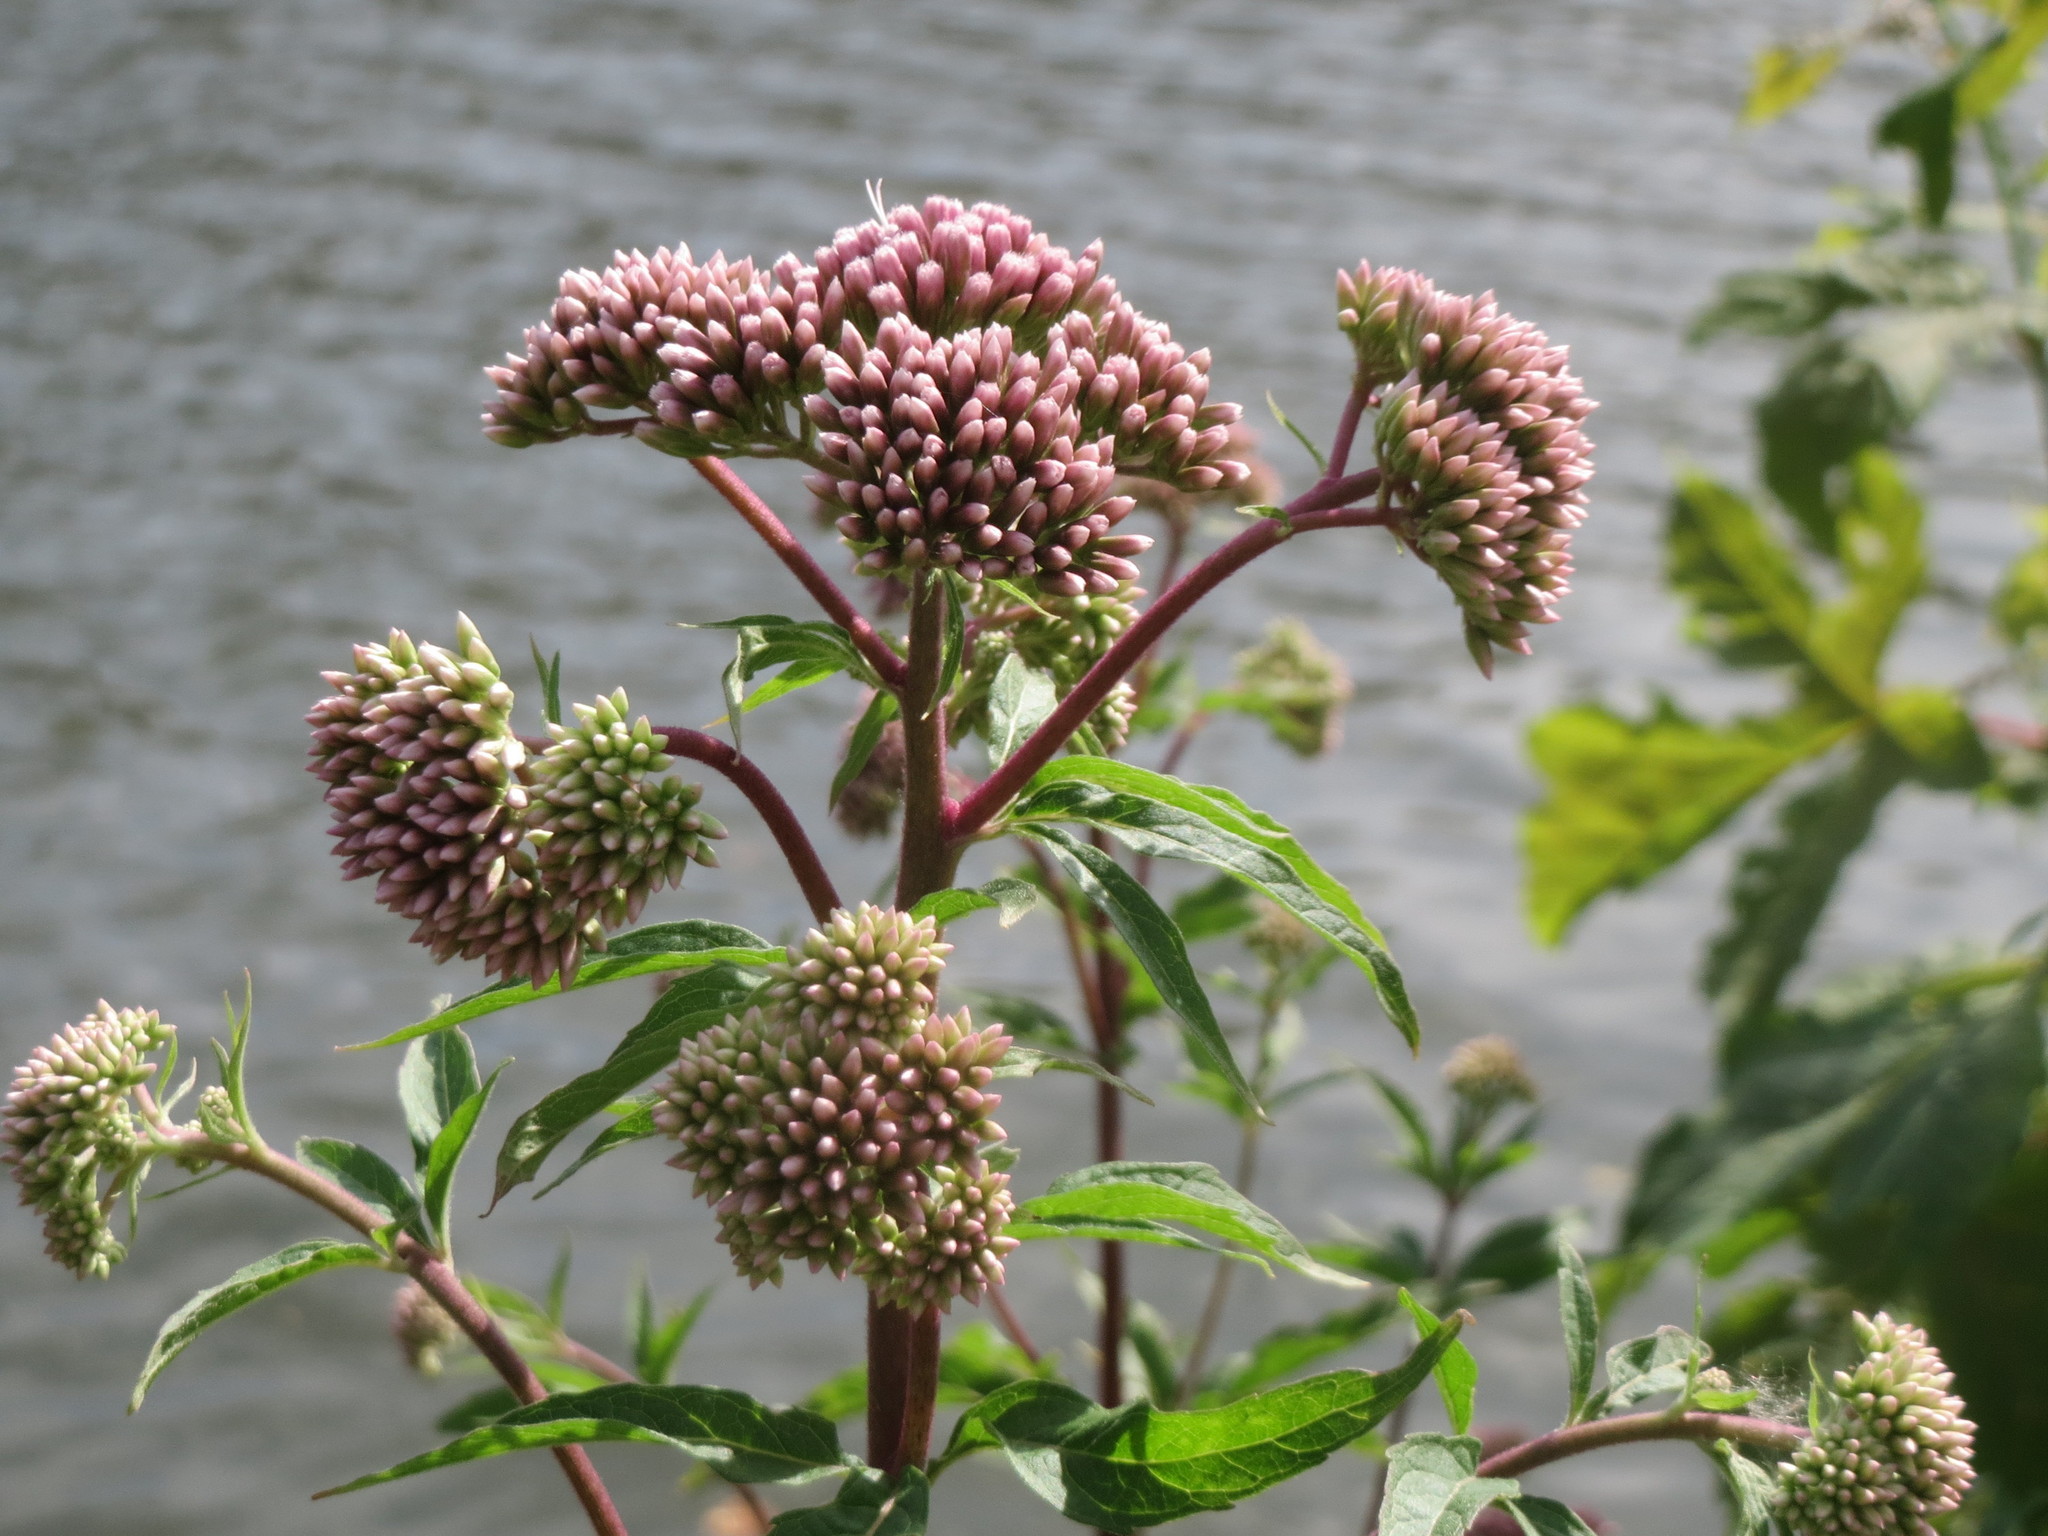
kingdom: Plantae
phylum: Tracheophyta
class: Magnoliopsida
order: Asterales
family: Asteraceae
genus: Eupatorium
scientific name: Eupatorium cannabinum
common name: Hemp-agrimony
